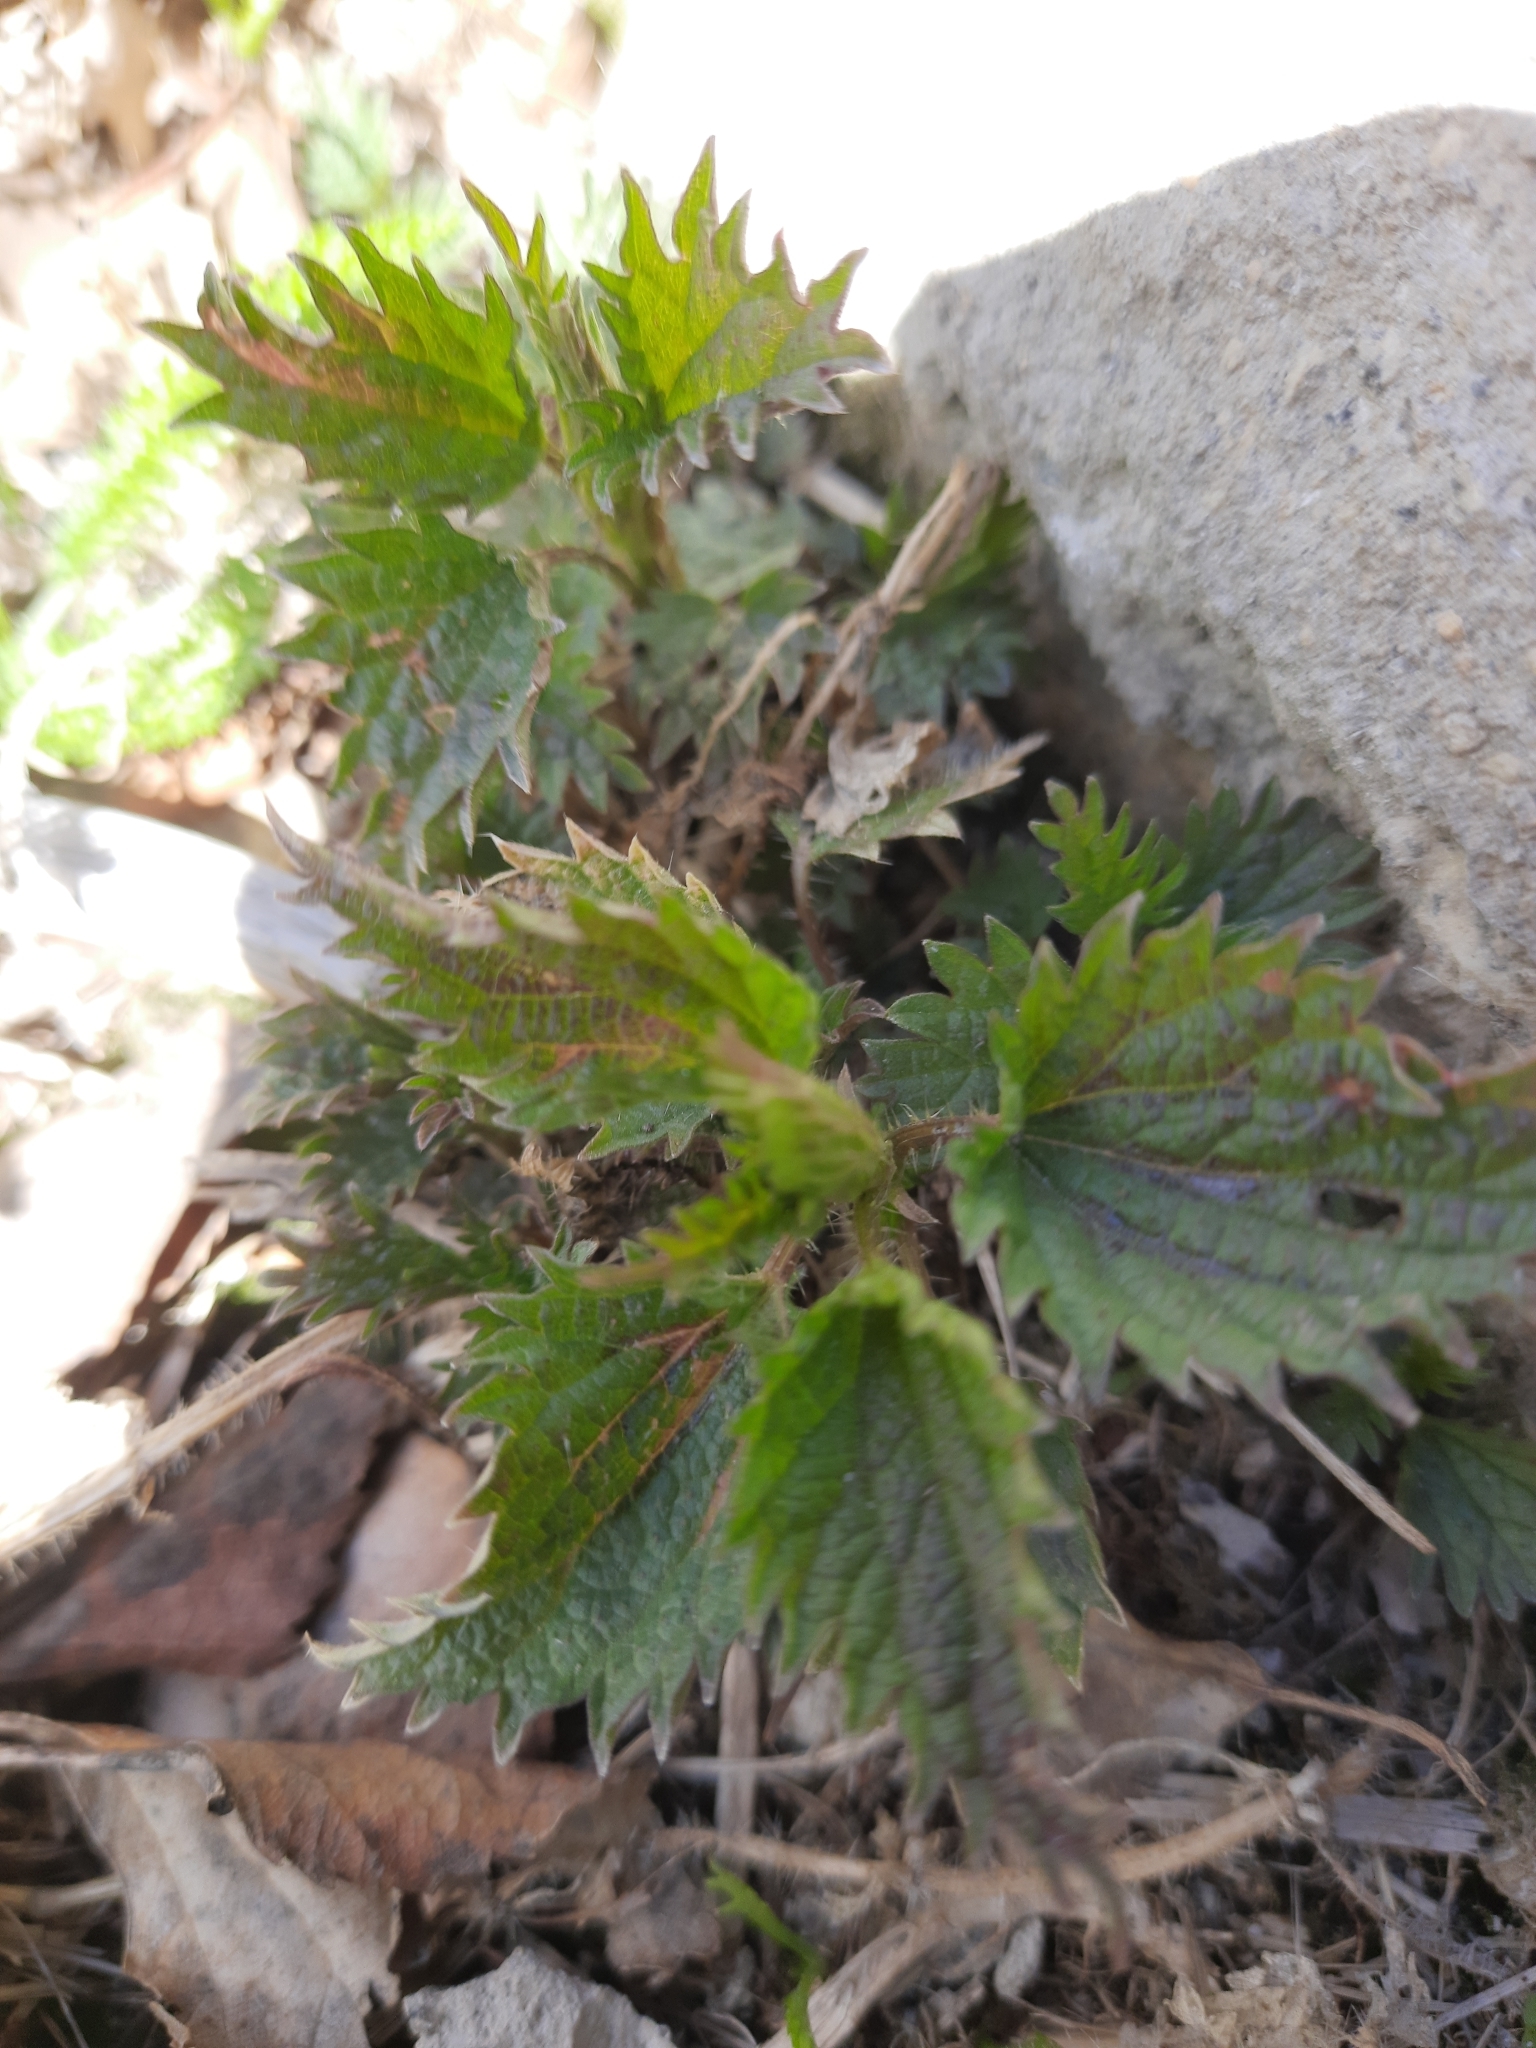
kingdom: Plantae
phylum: Tracheophyta
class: Magnoliopsida
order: Rosales
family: Urticaceae
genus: Urtica
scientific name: Urtica dioica
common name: Common nettle
